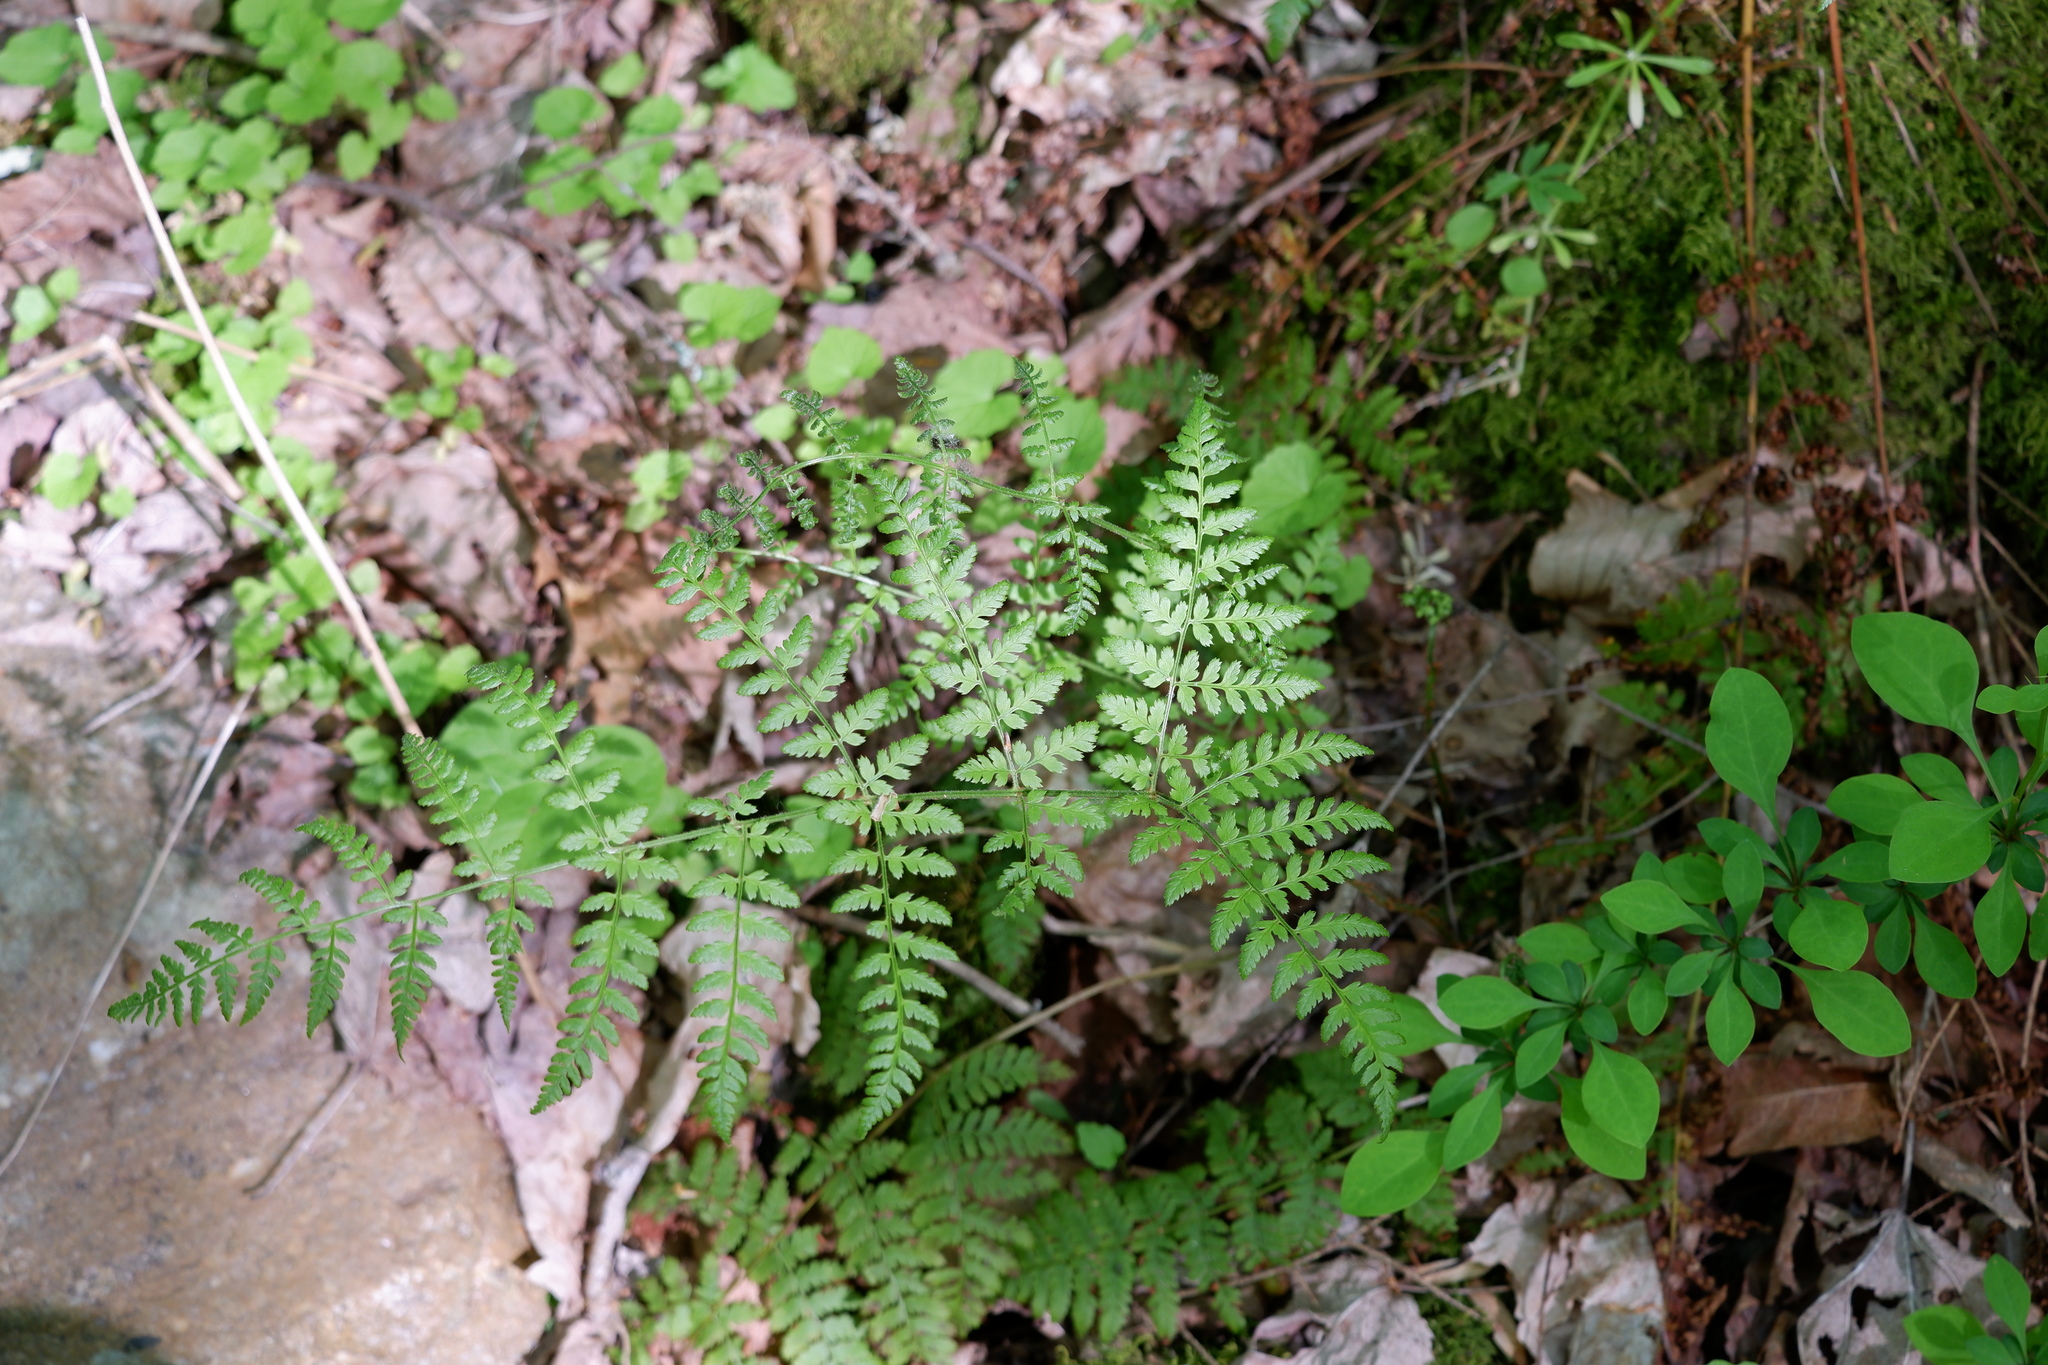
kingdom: Plantae
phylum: Tracheophyta
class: Polypodiopsida
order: Polypodiales
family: Dryopteridaceae
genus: Dryopteris
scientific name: Dryopteris intermedia
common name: Evergreen wood fern
